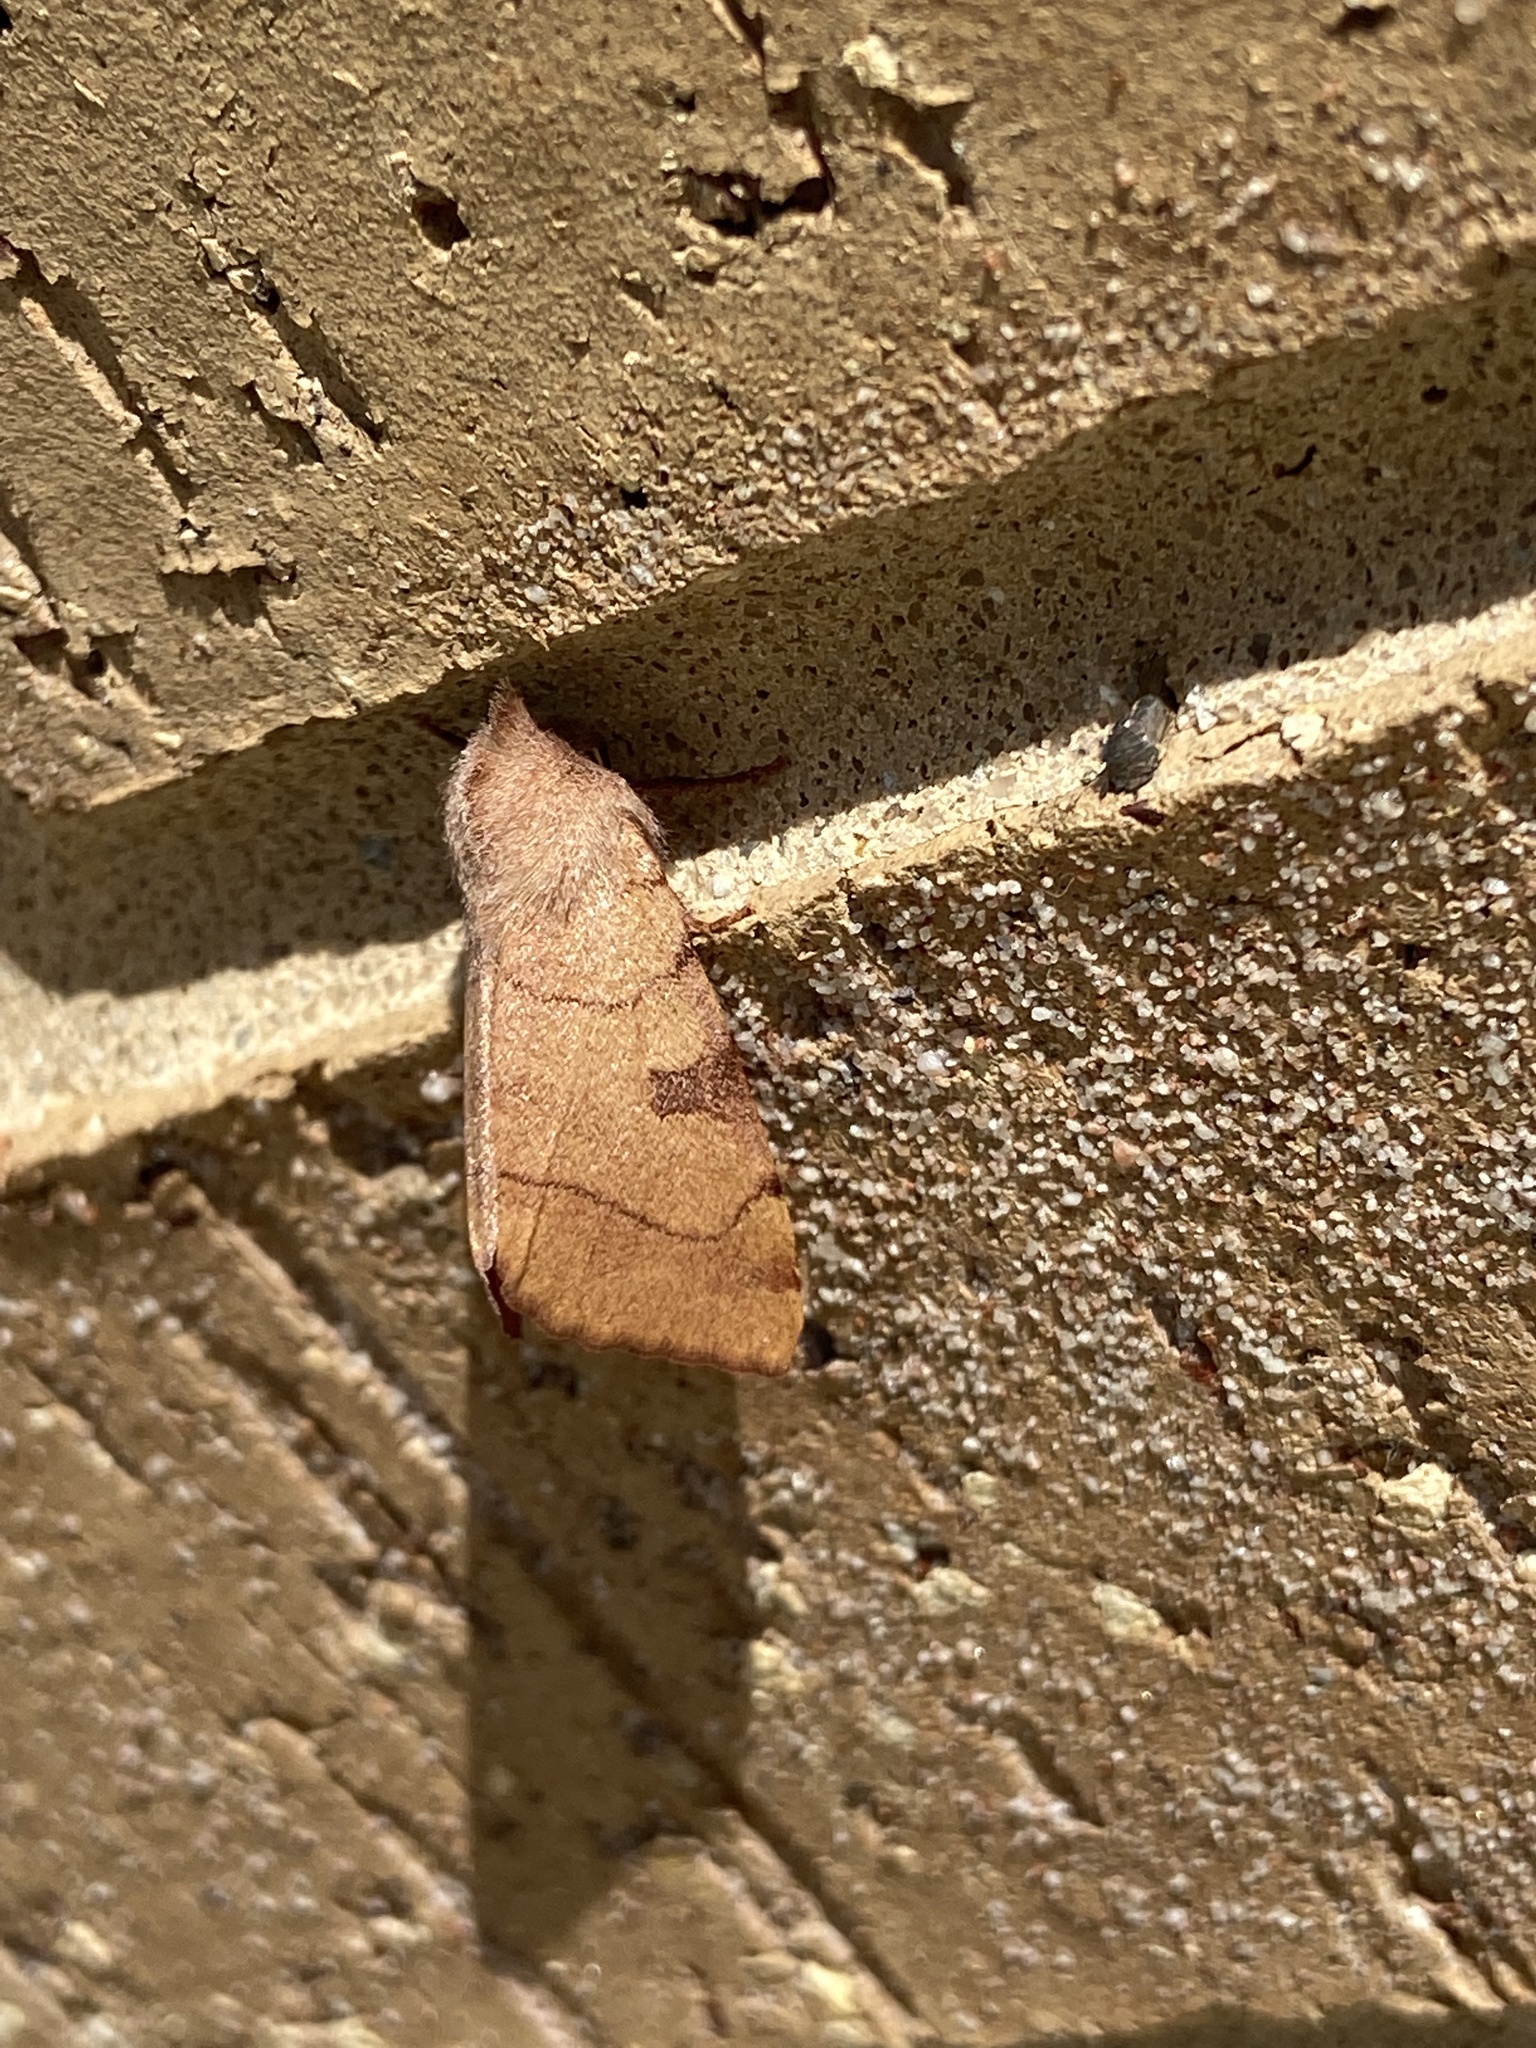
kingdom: Animalia
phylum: Arthropoda
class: Insecta
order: Lepidoptera
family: Noctuidae
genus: Choephora
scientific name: Choephora fungorum
